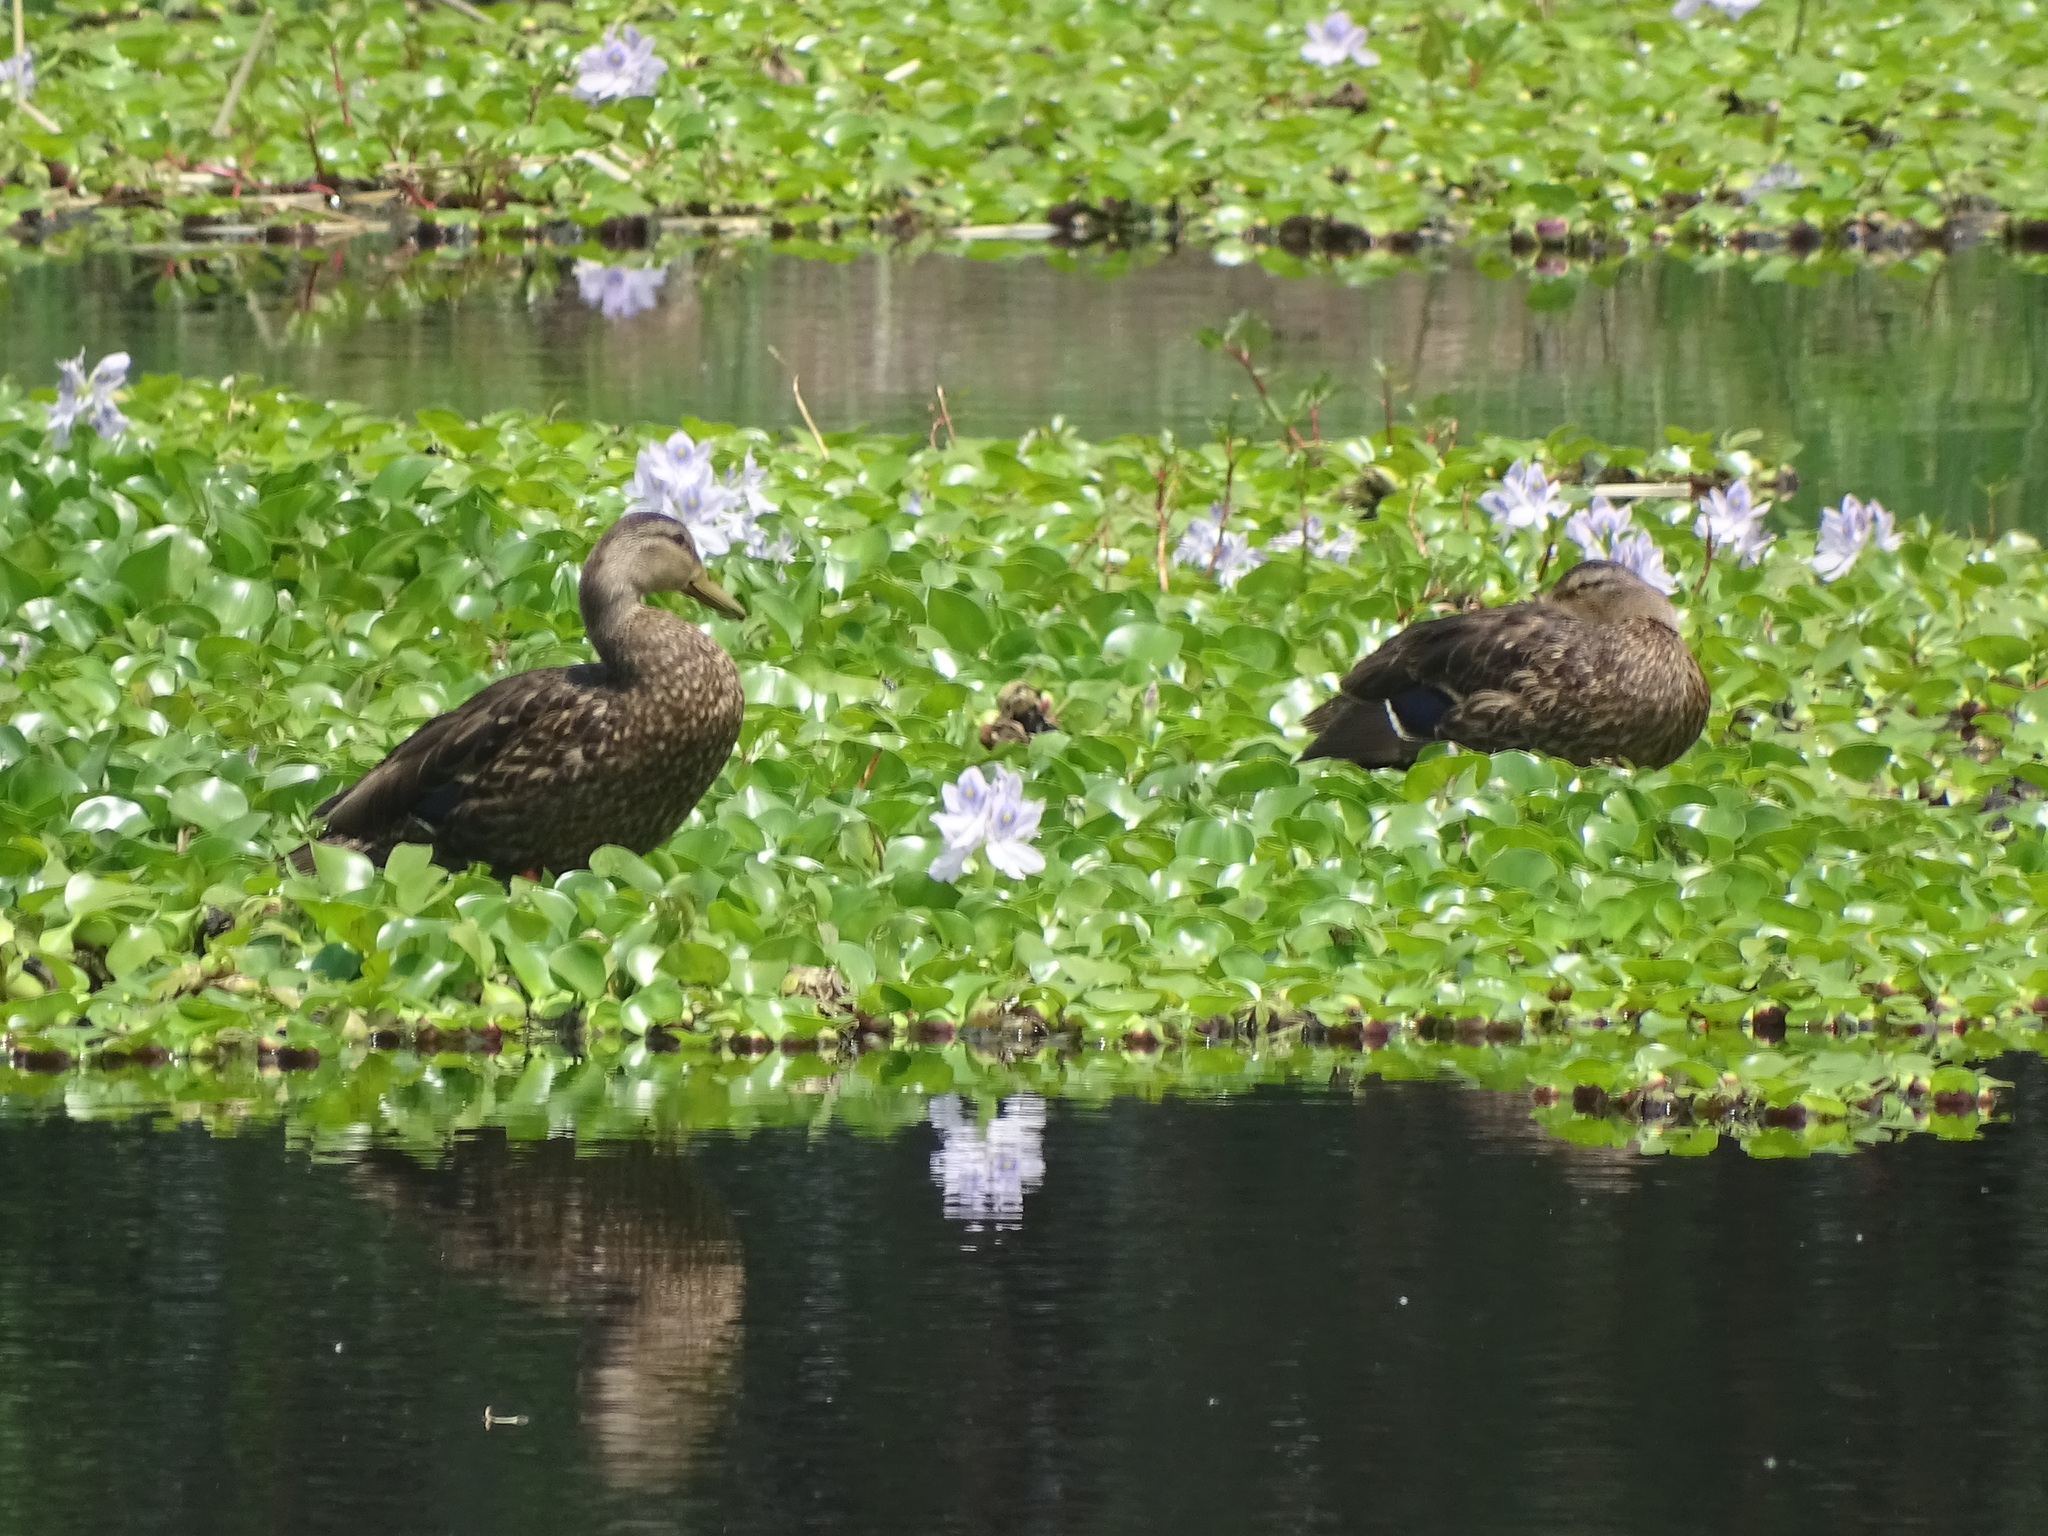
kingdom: Animalia
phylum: Chordata
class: Aves
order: Anseriformes
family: Anatidae
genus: Anas
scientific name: Anas diazi
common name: Mexican duck
